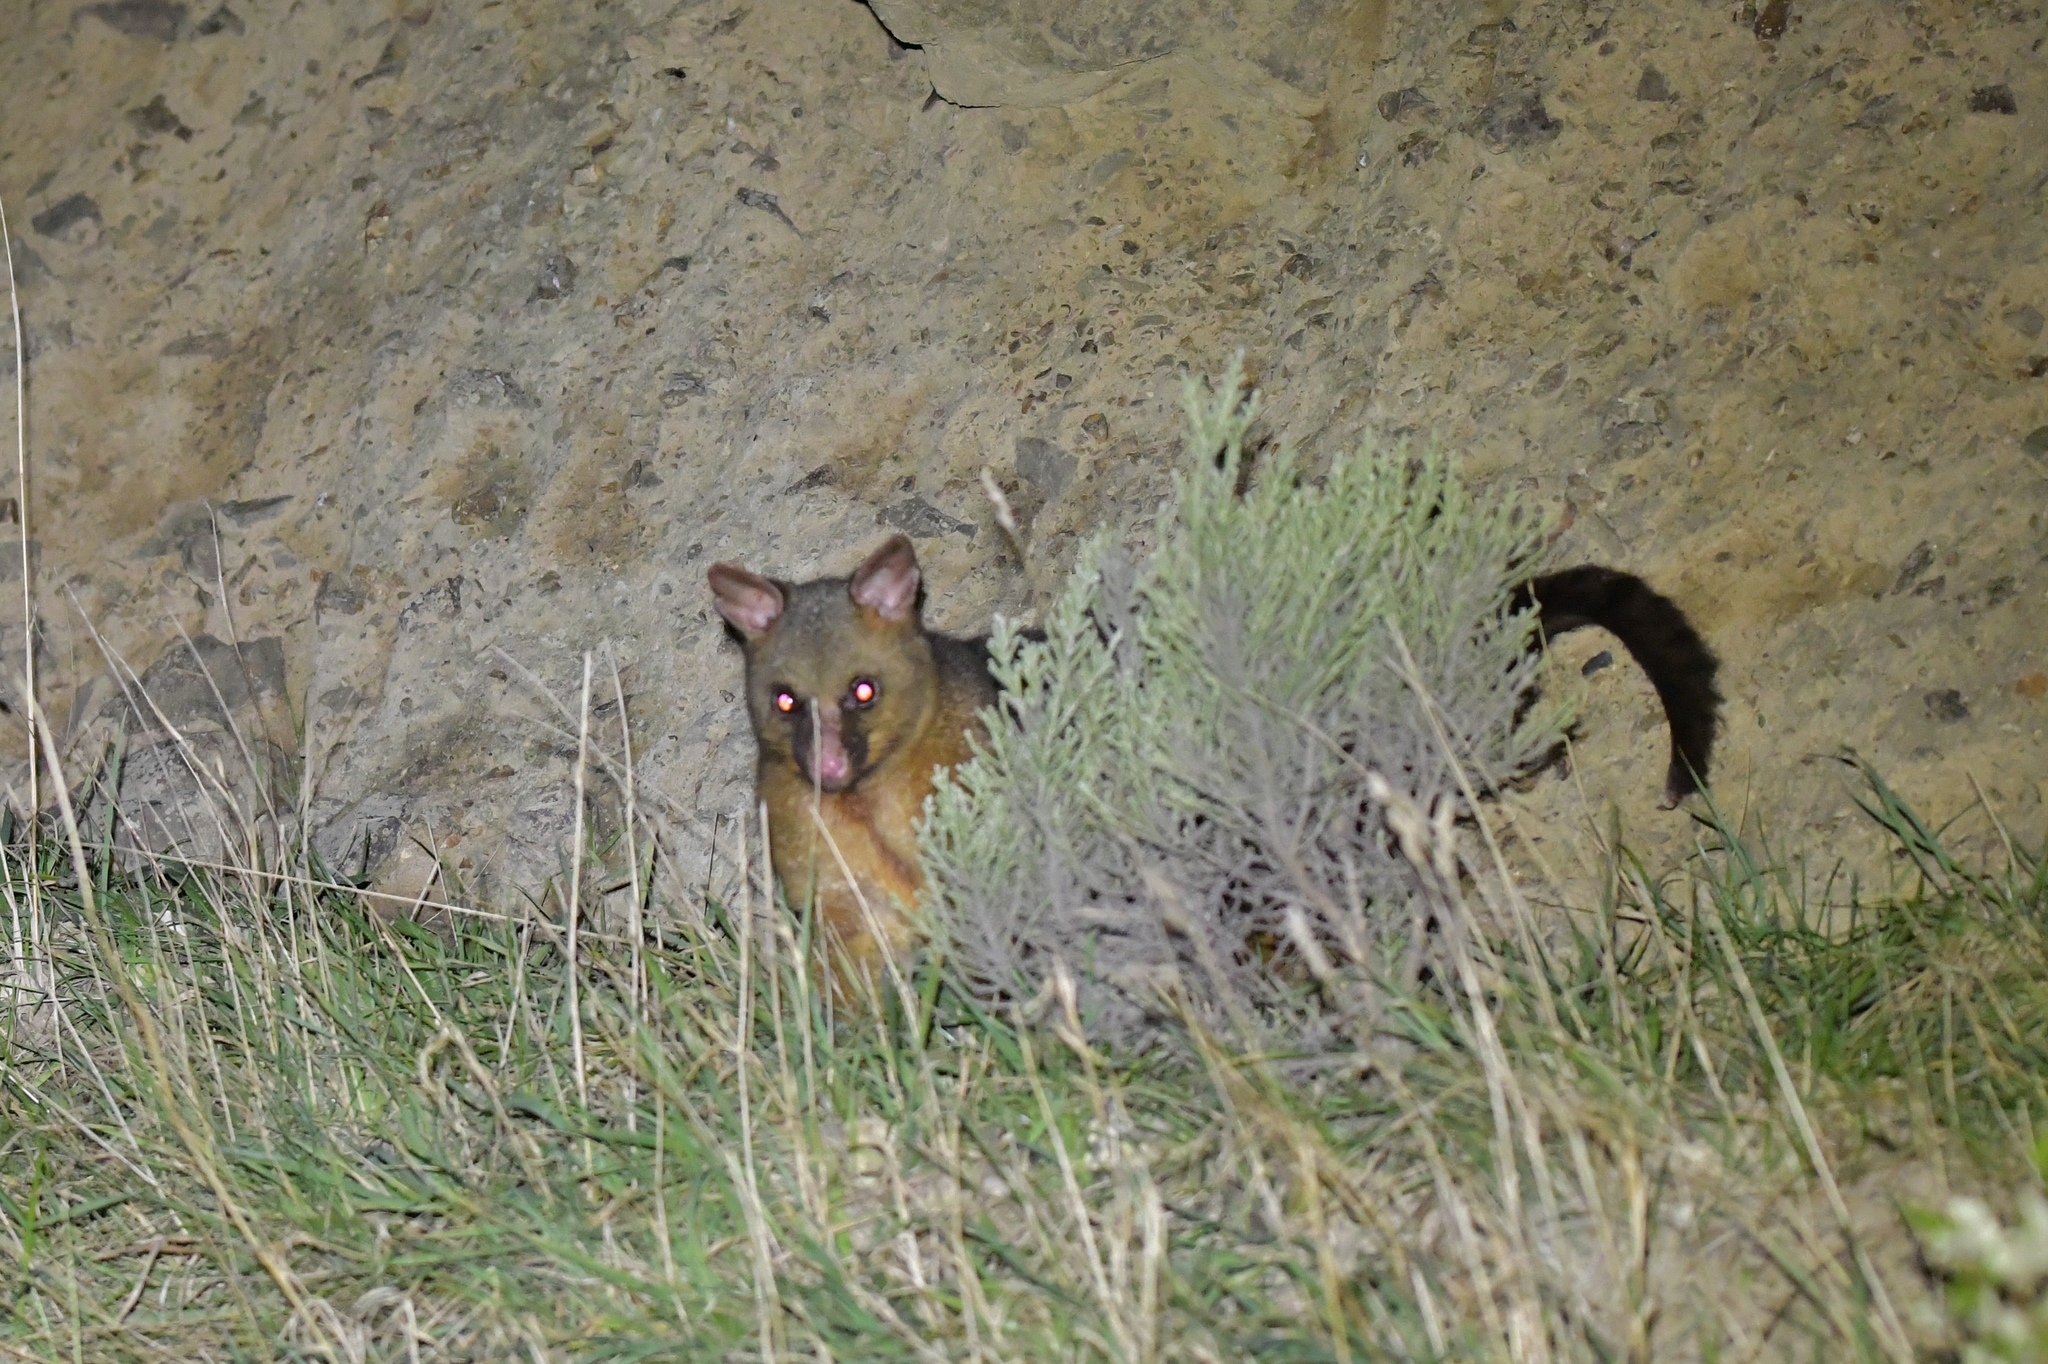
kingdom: Animalia
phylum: Chordata
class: Mammalia
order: Diprotodontia
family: Phalangeridae
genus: Trichosurus
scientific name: Trichosurus vulpecula
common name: Common brushtail
